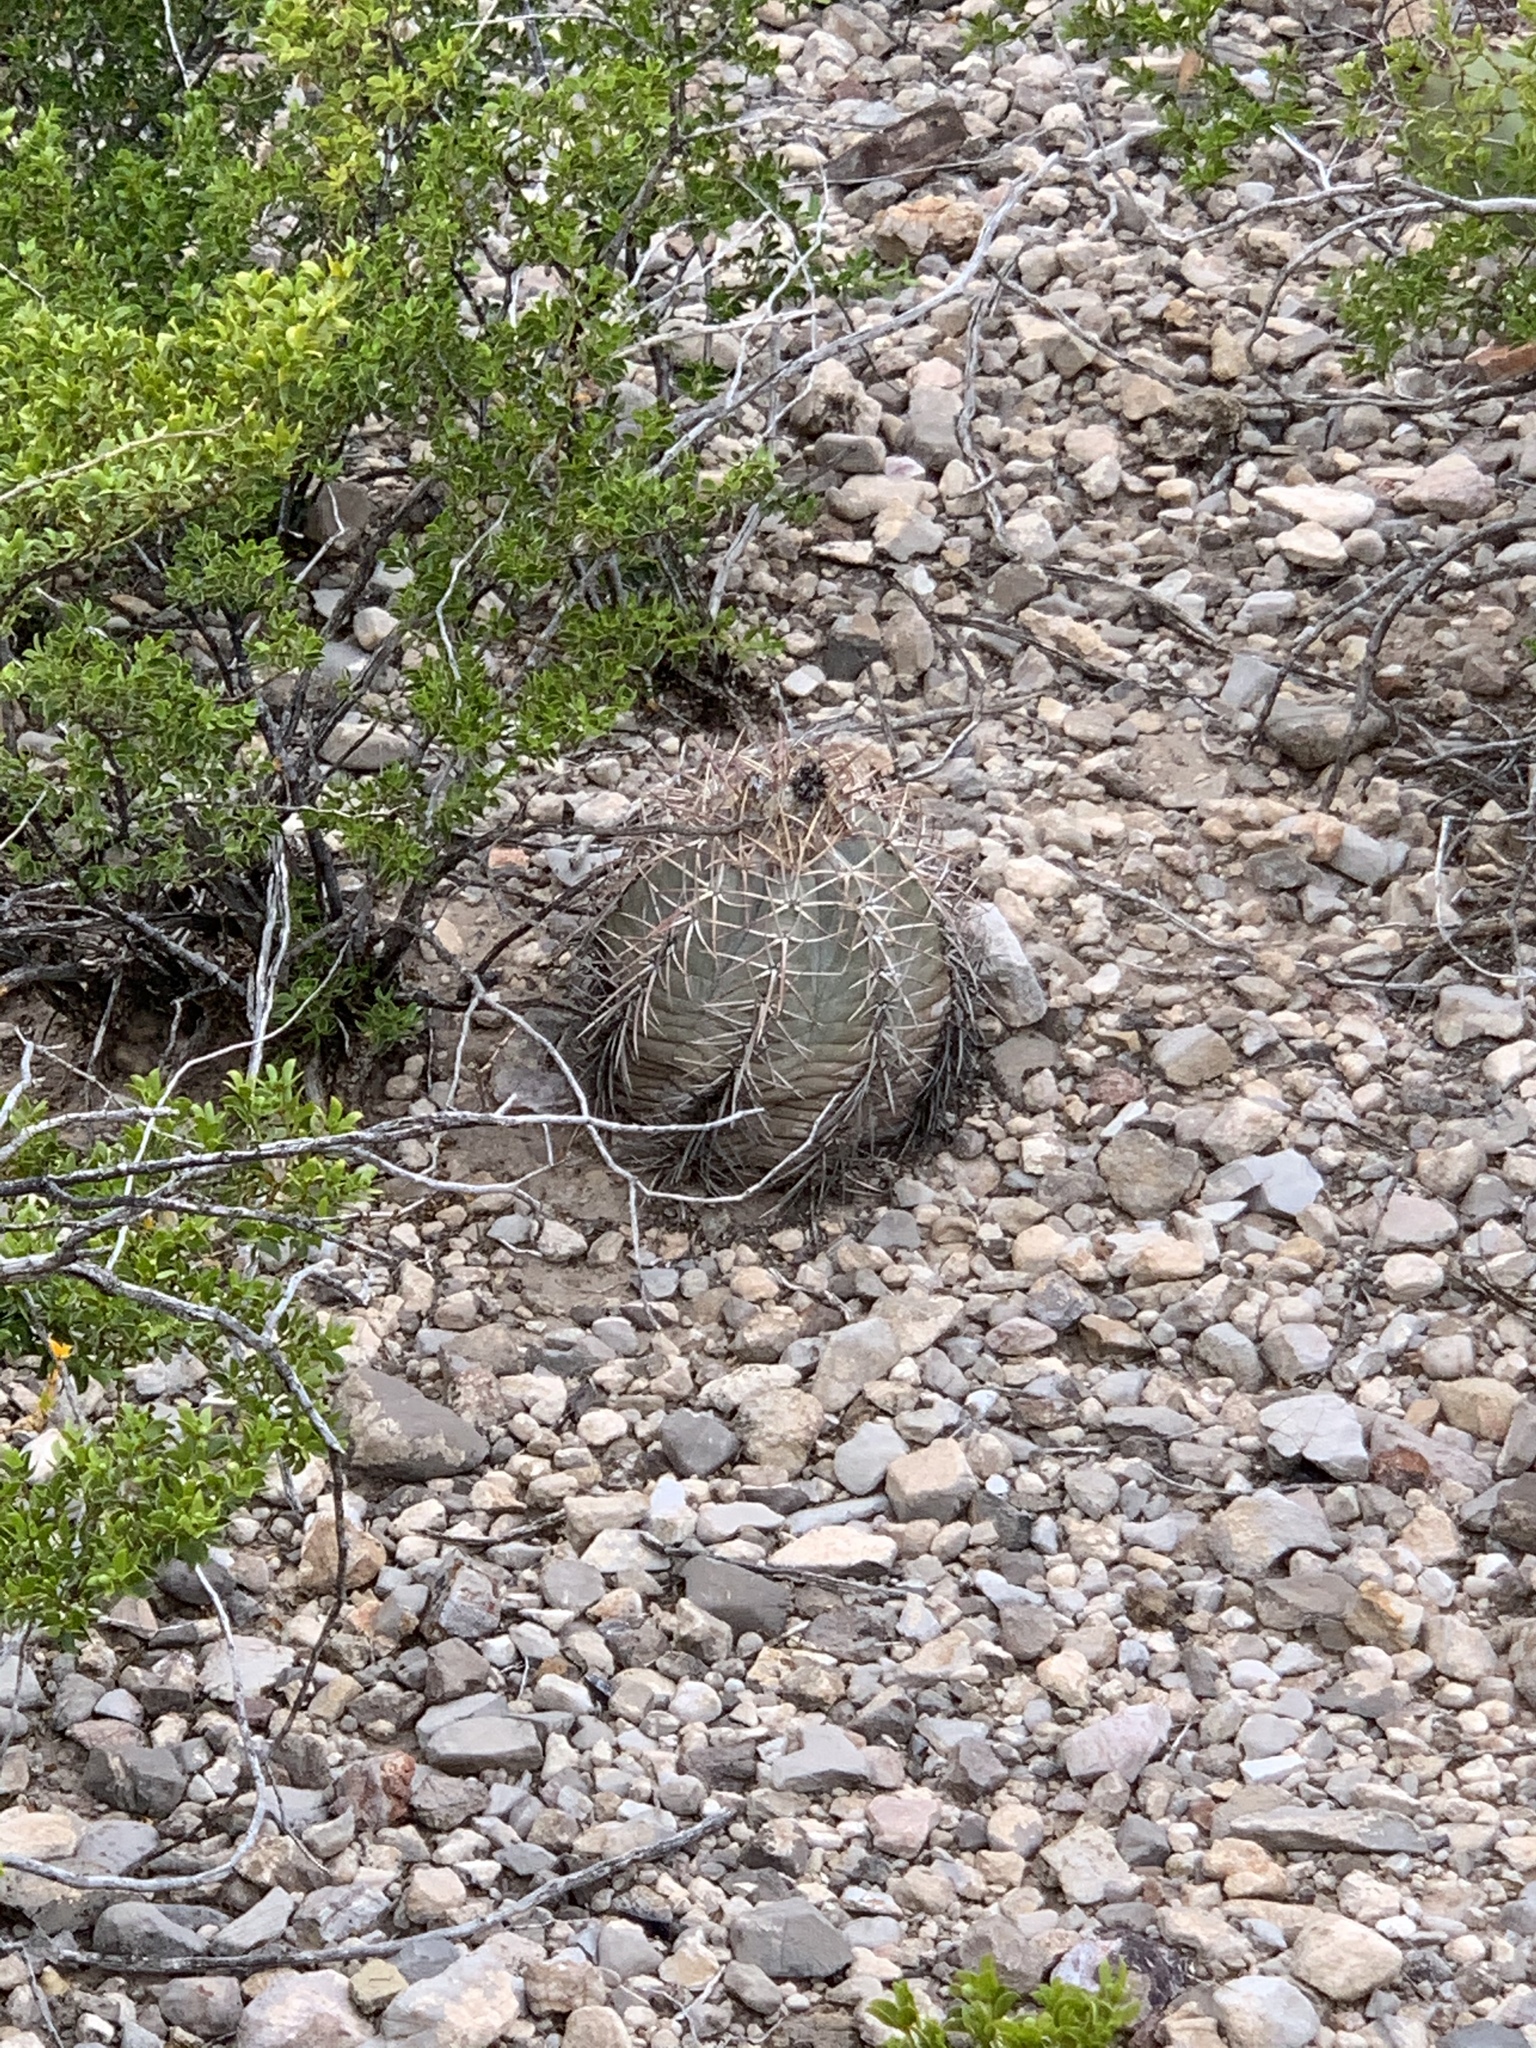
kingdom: Plantae
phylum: Tracheophyta
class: Magnoliopsida
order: Caryophyllales
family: Cactaceae
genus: Echinocactus
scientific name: Echinocactus horizonthalonius
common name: Devilshead
